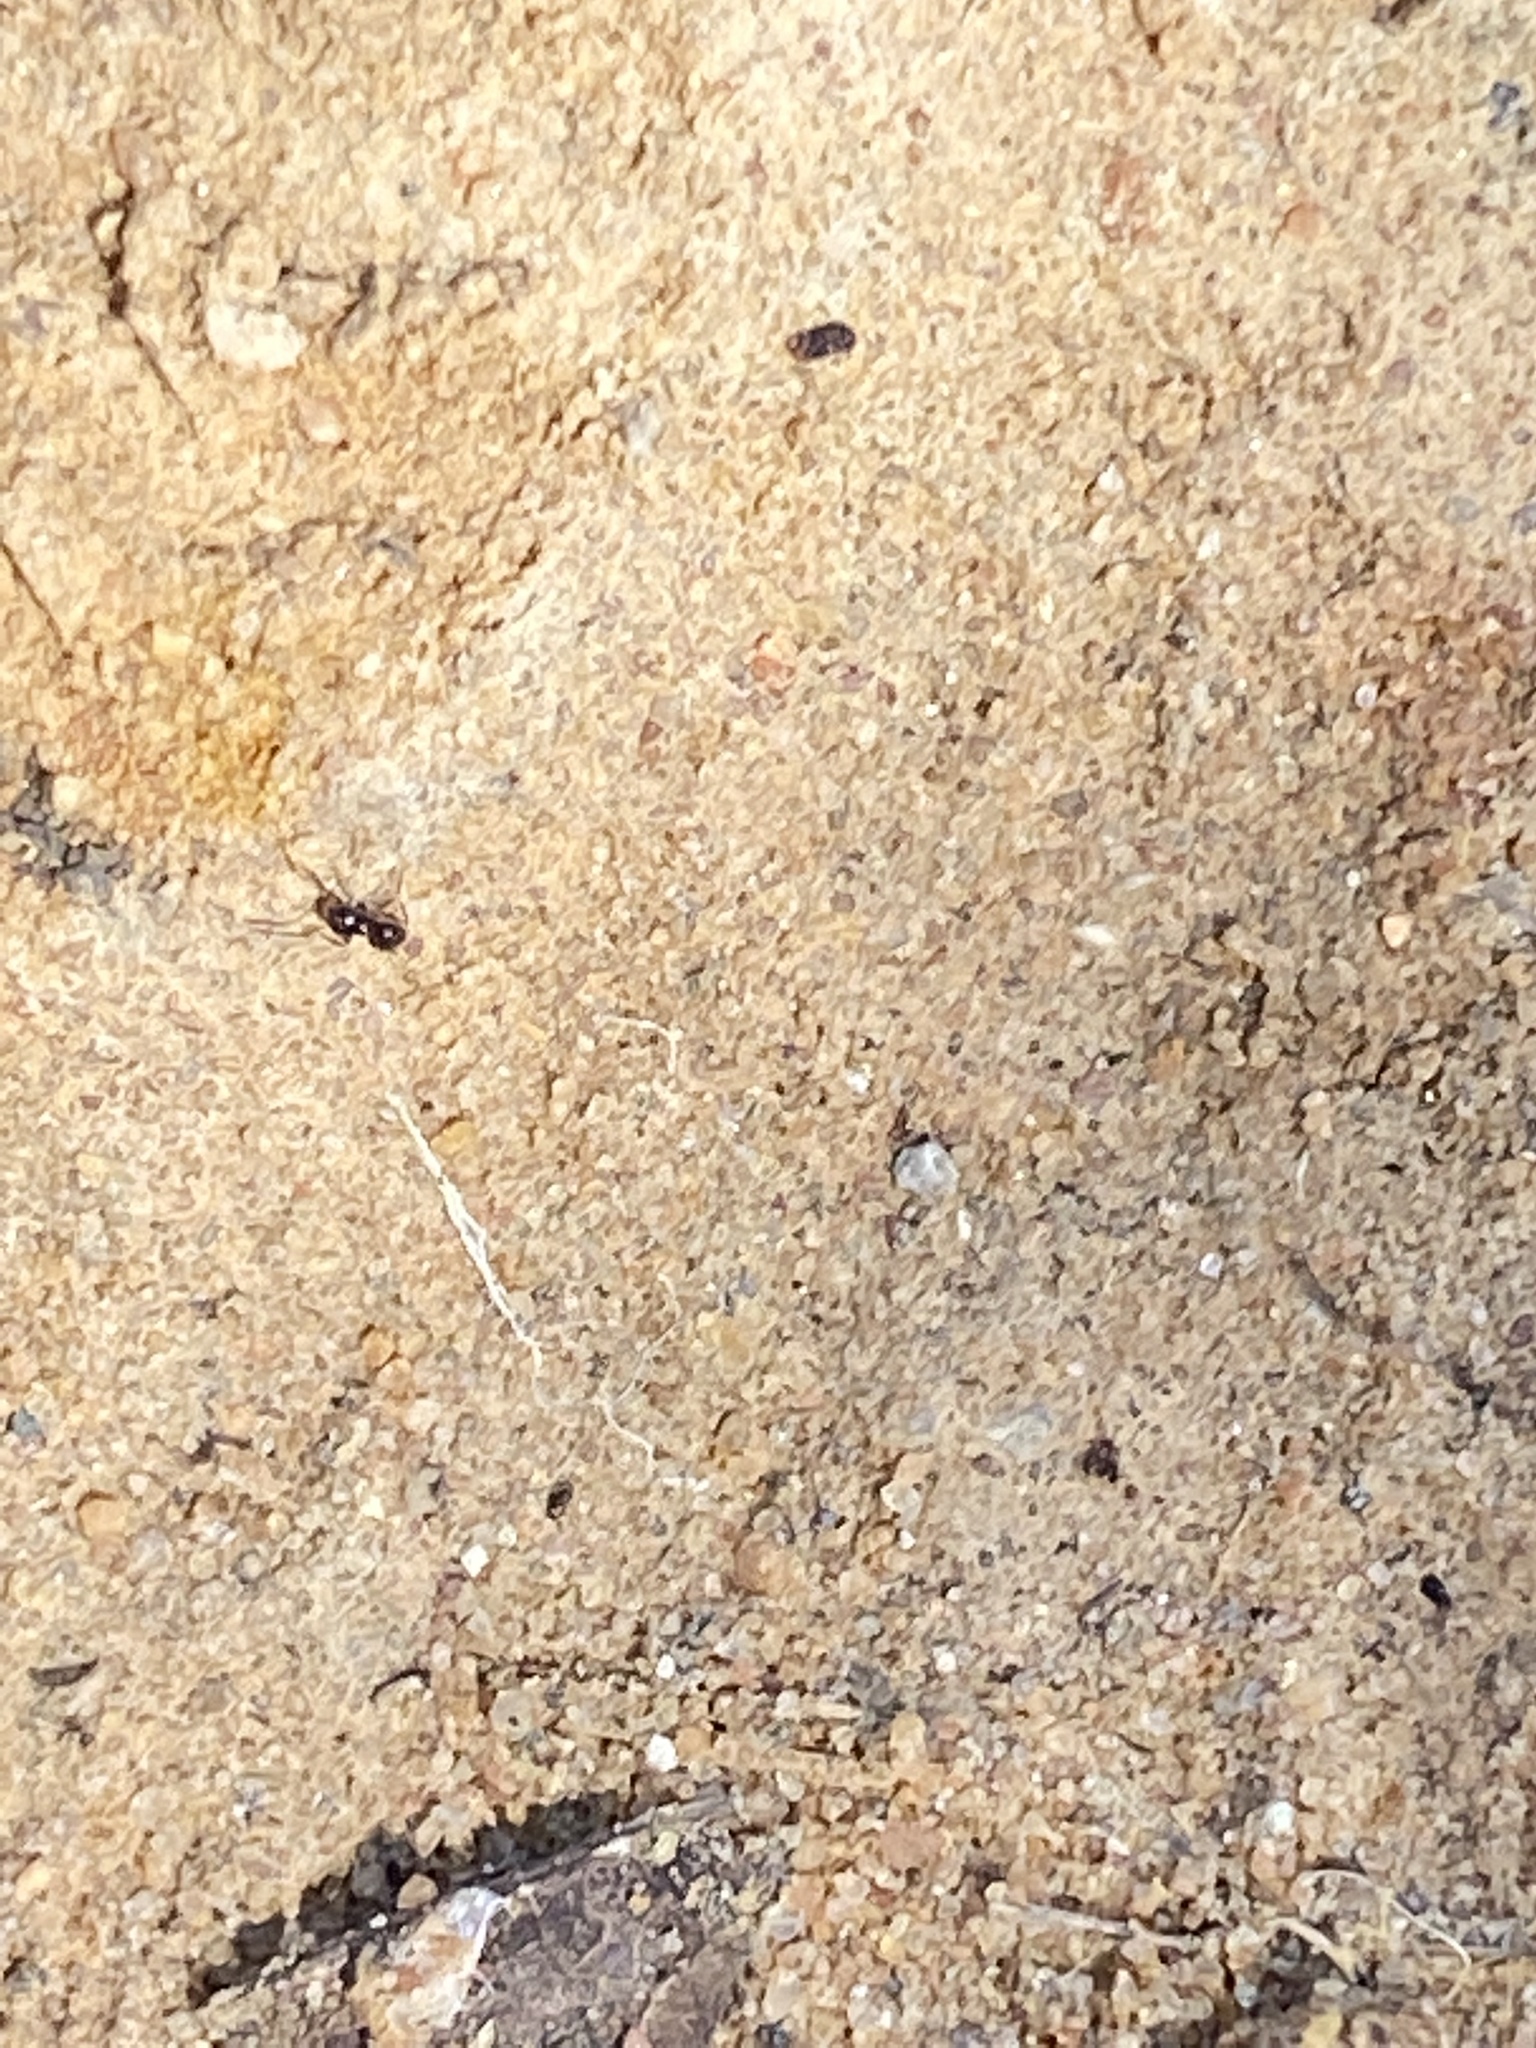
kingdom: Animalia
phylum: Arthropoda
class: Insecta
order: Hymenoptera
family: Formicidae
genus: Brachymyrmex
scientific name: Brachymyrmex patagonicus
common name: Dark rover ant
